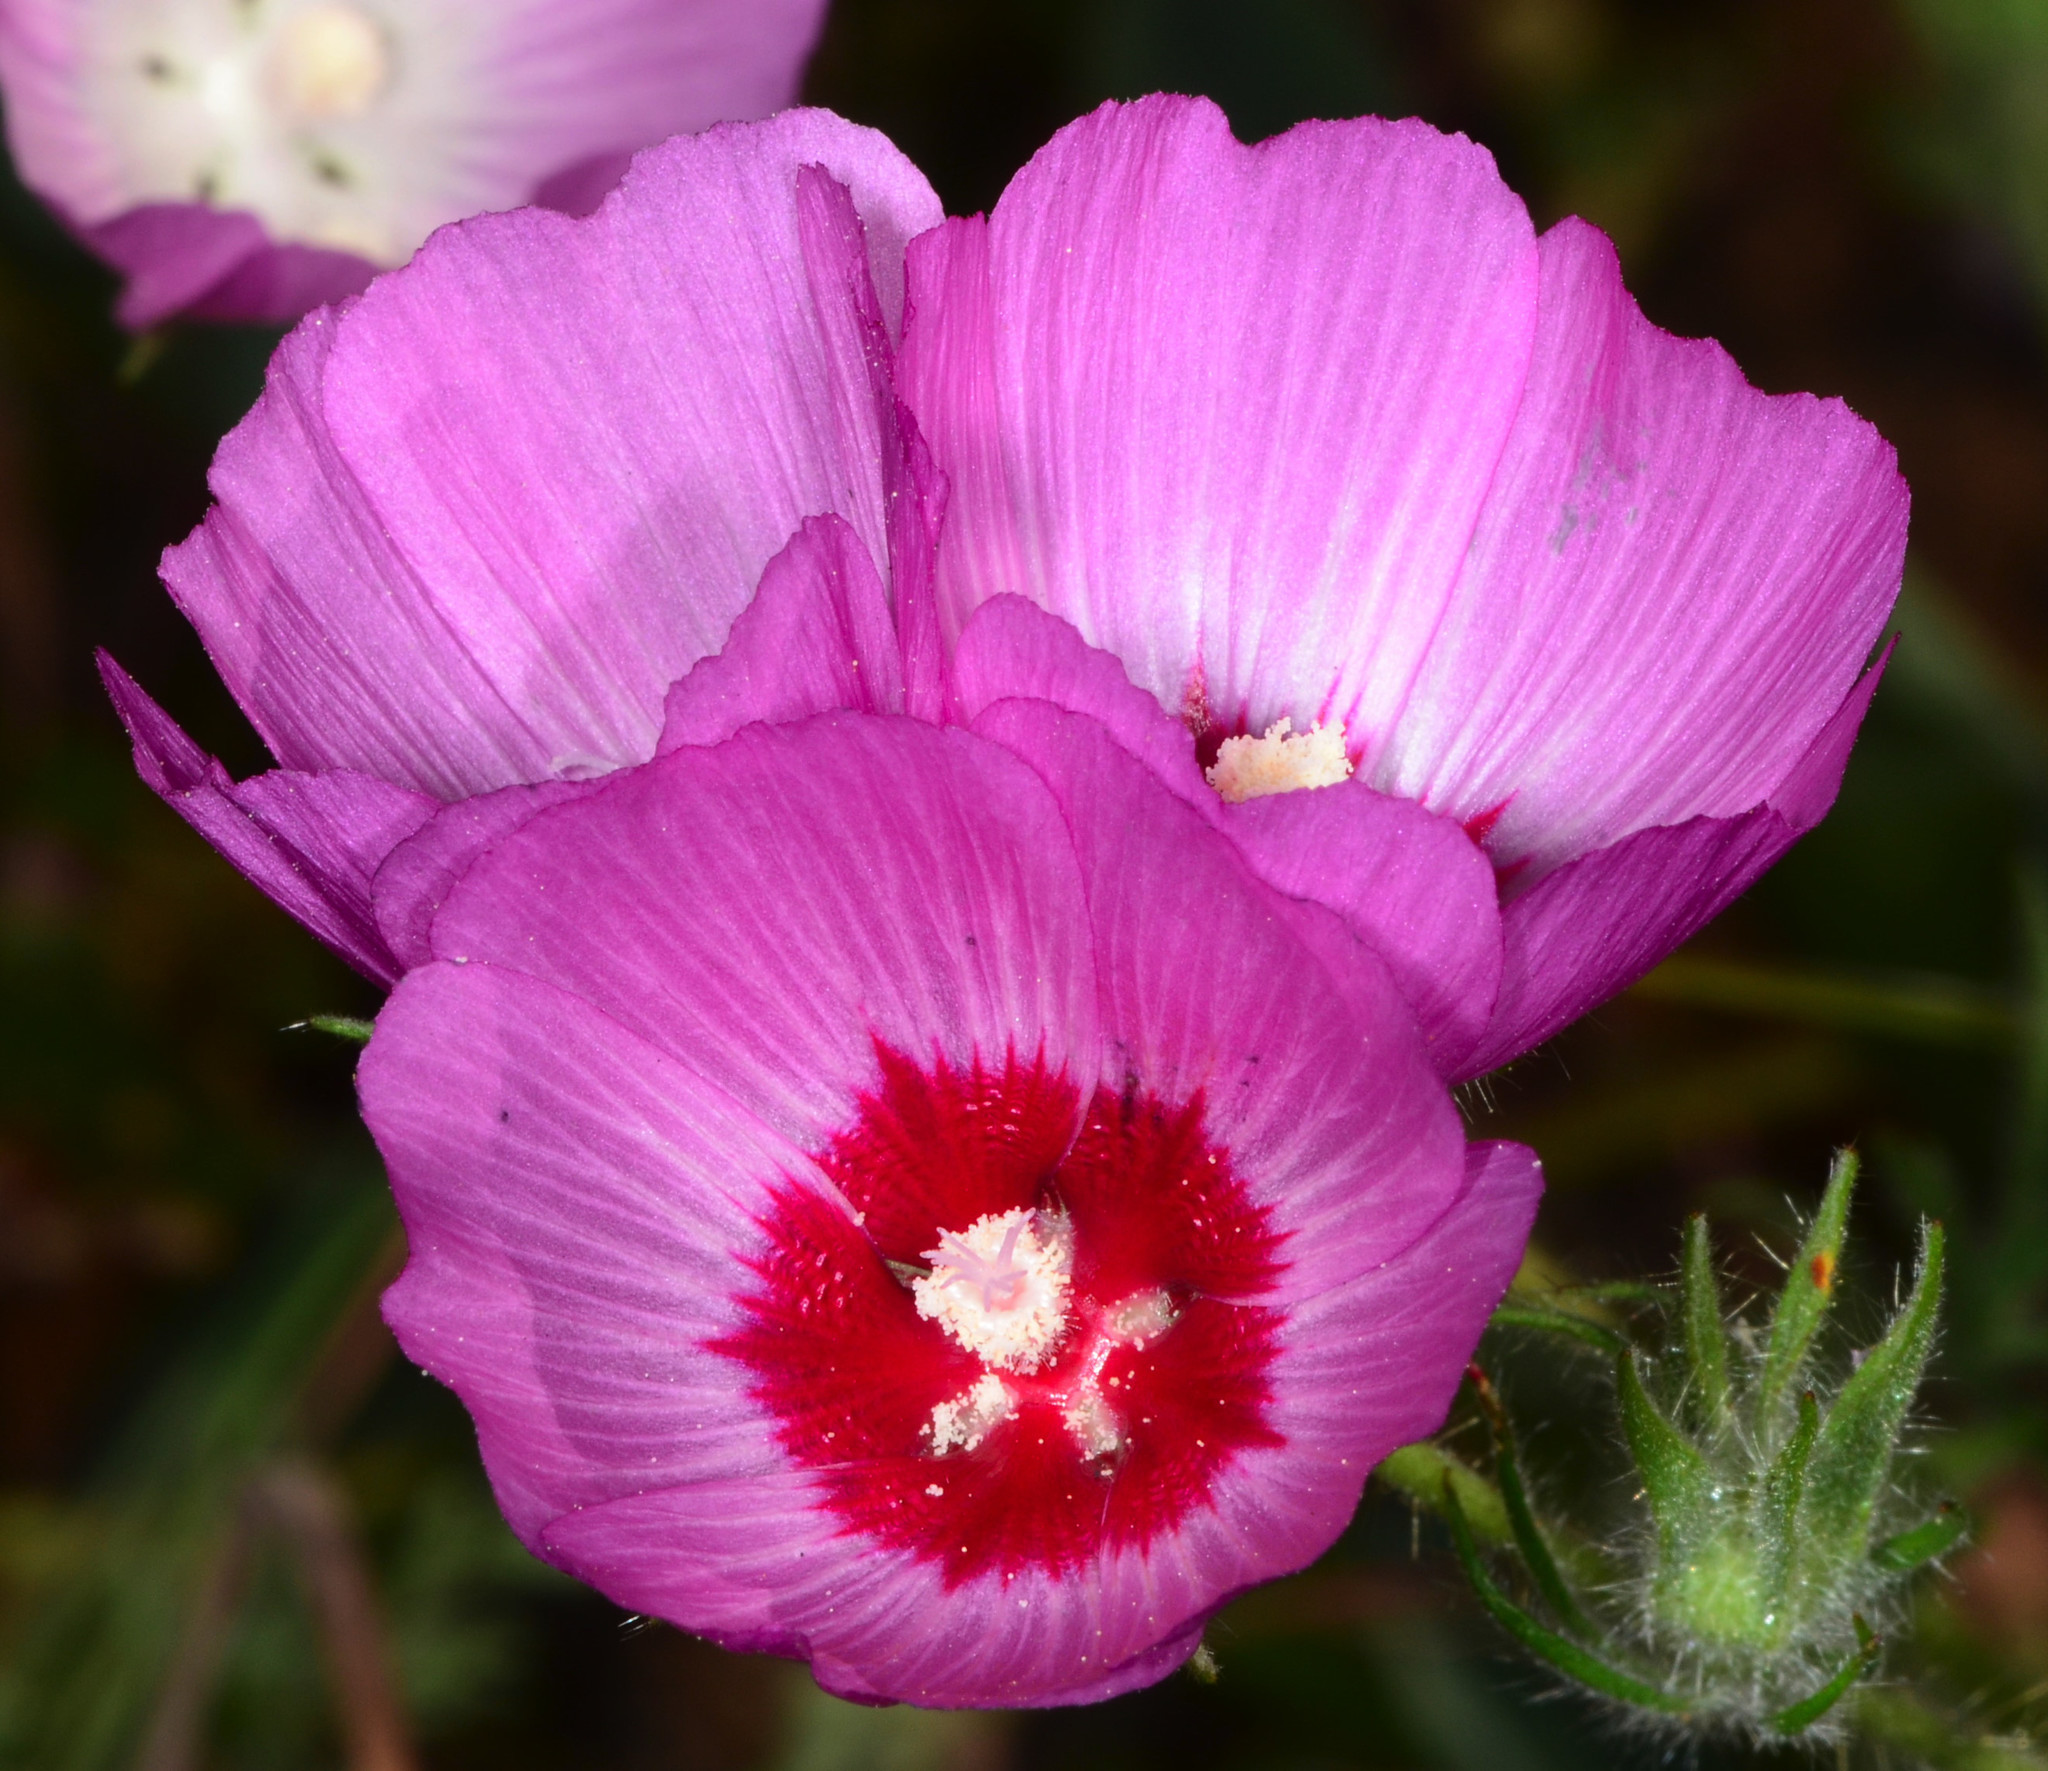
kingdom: Plantae
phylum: Tracheophyta
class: Magnoliopsida
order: Malvales
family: Malvaceae
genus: Sidalcea
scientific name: Sidalcea diploscypha
